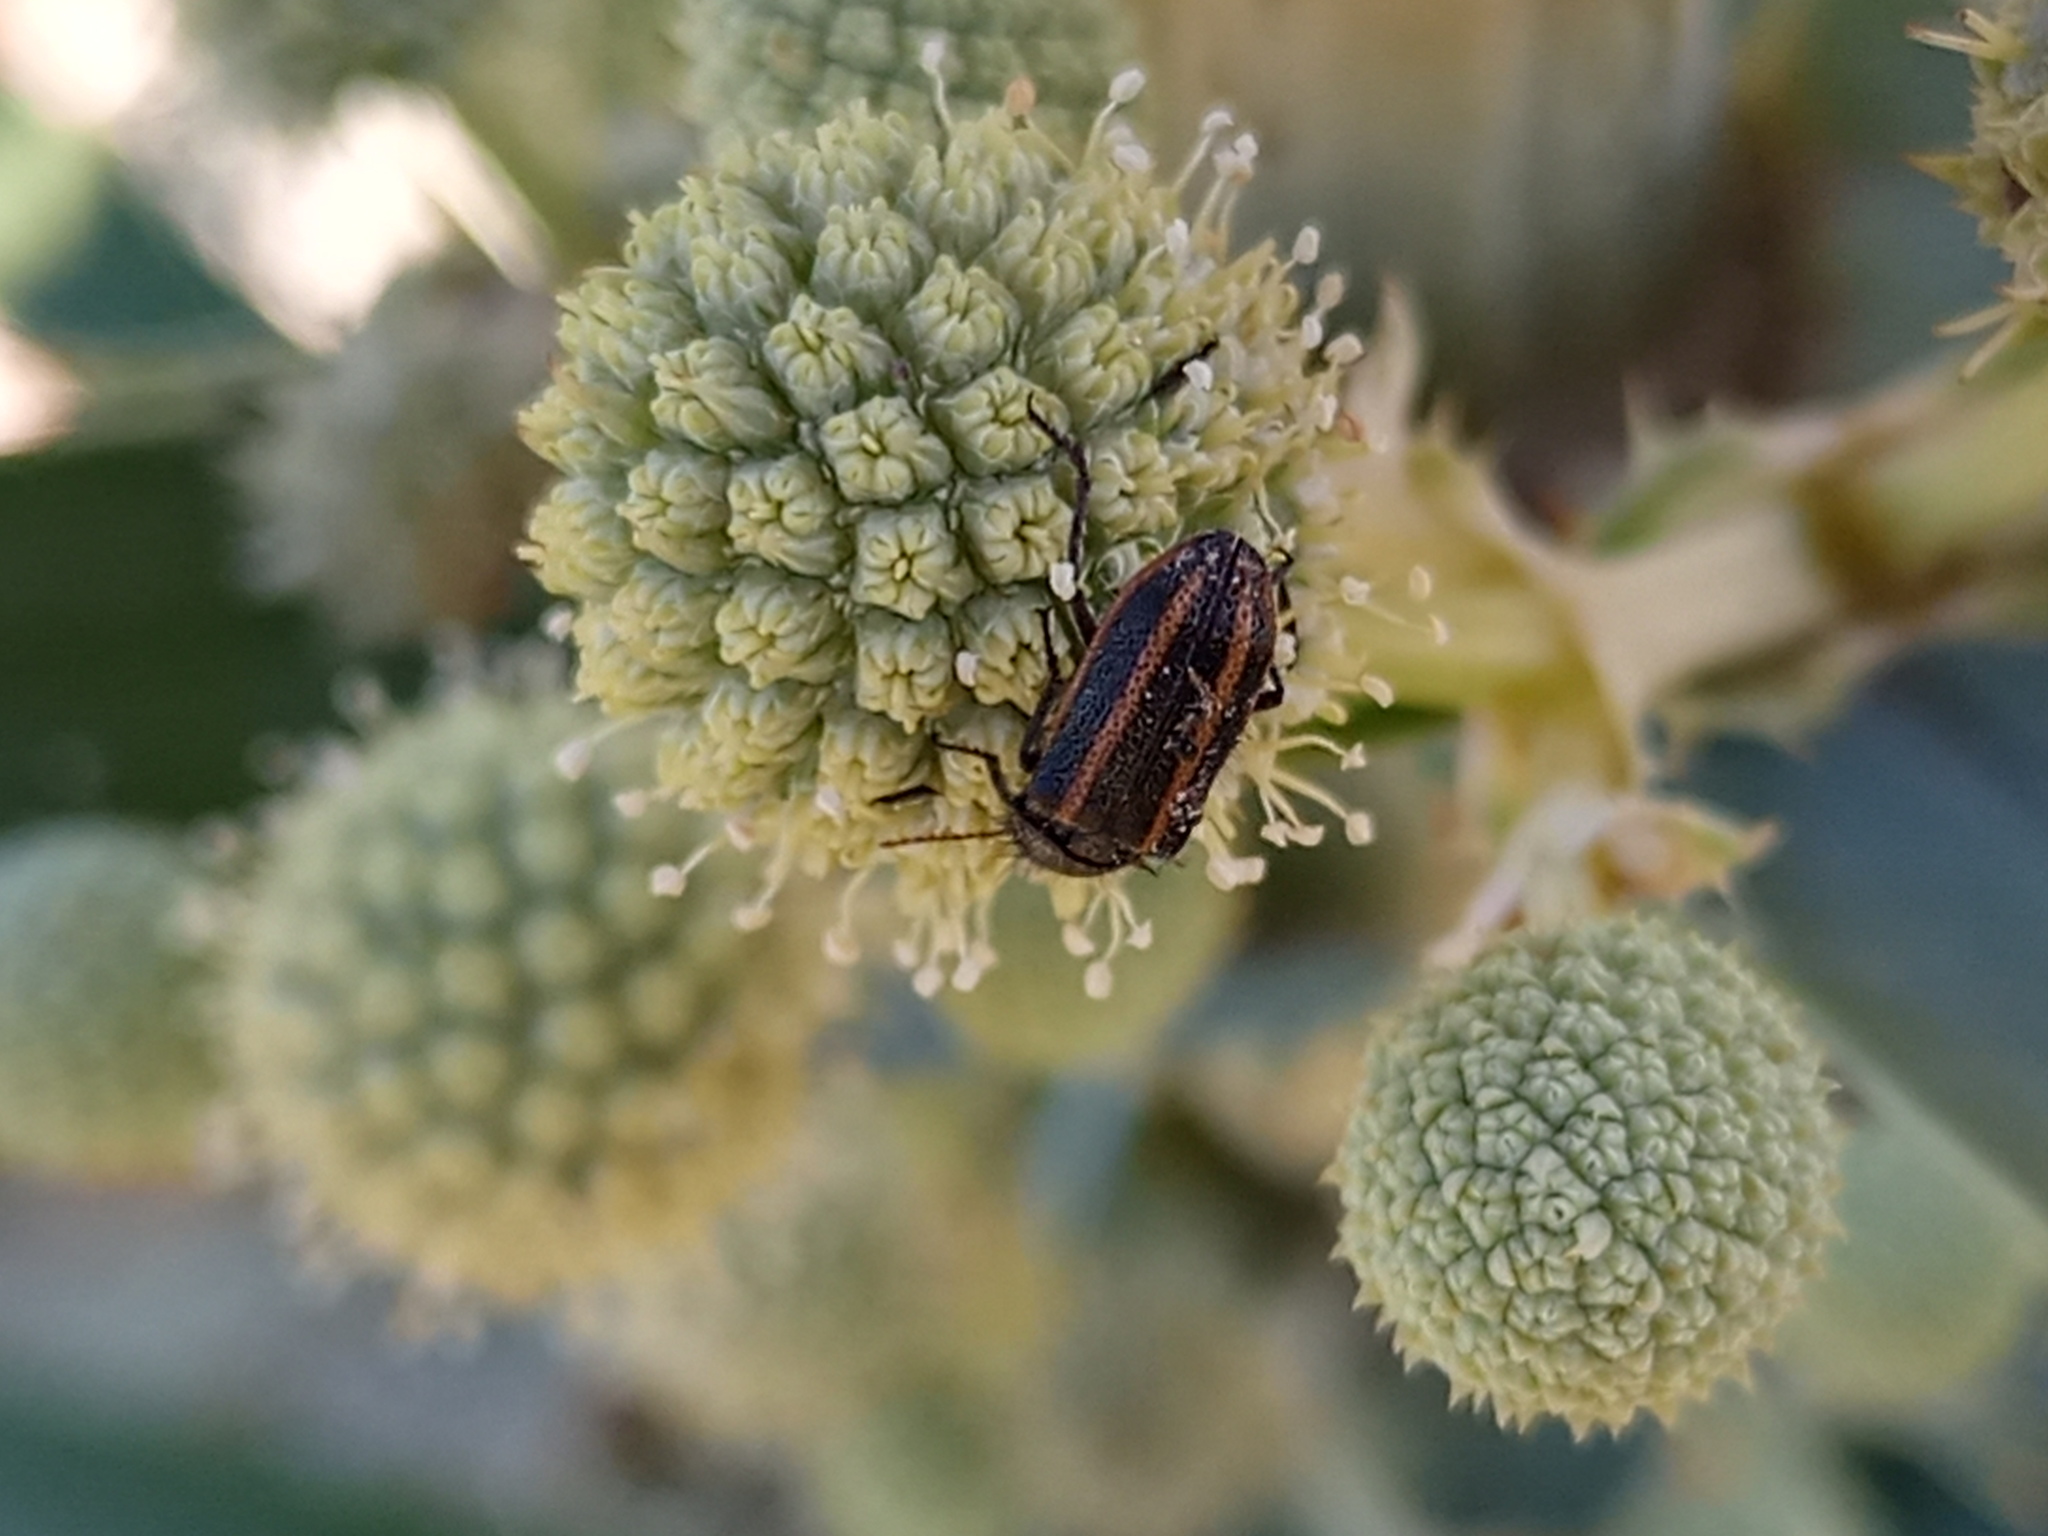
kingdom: Animalia
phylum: Arthropoda
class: Insecta
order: Coleoptera
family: Melyridae
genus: Astylus
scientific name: Astylus
